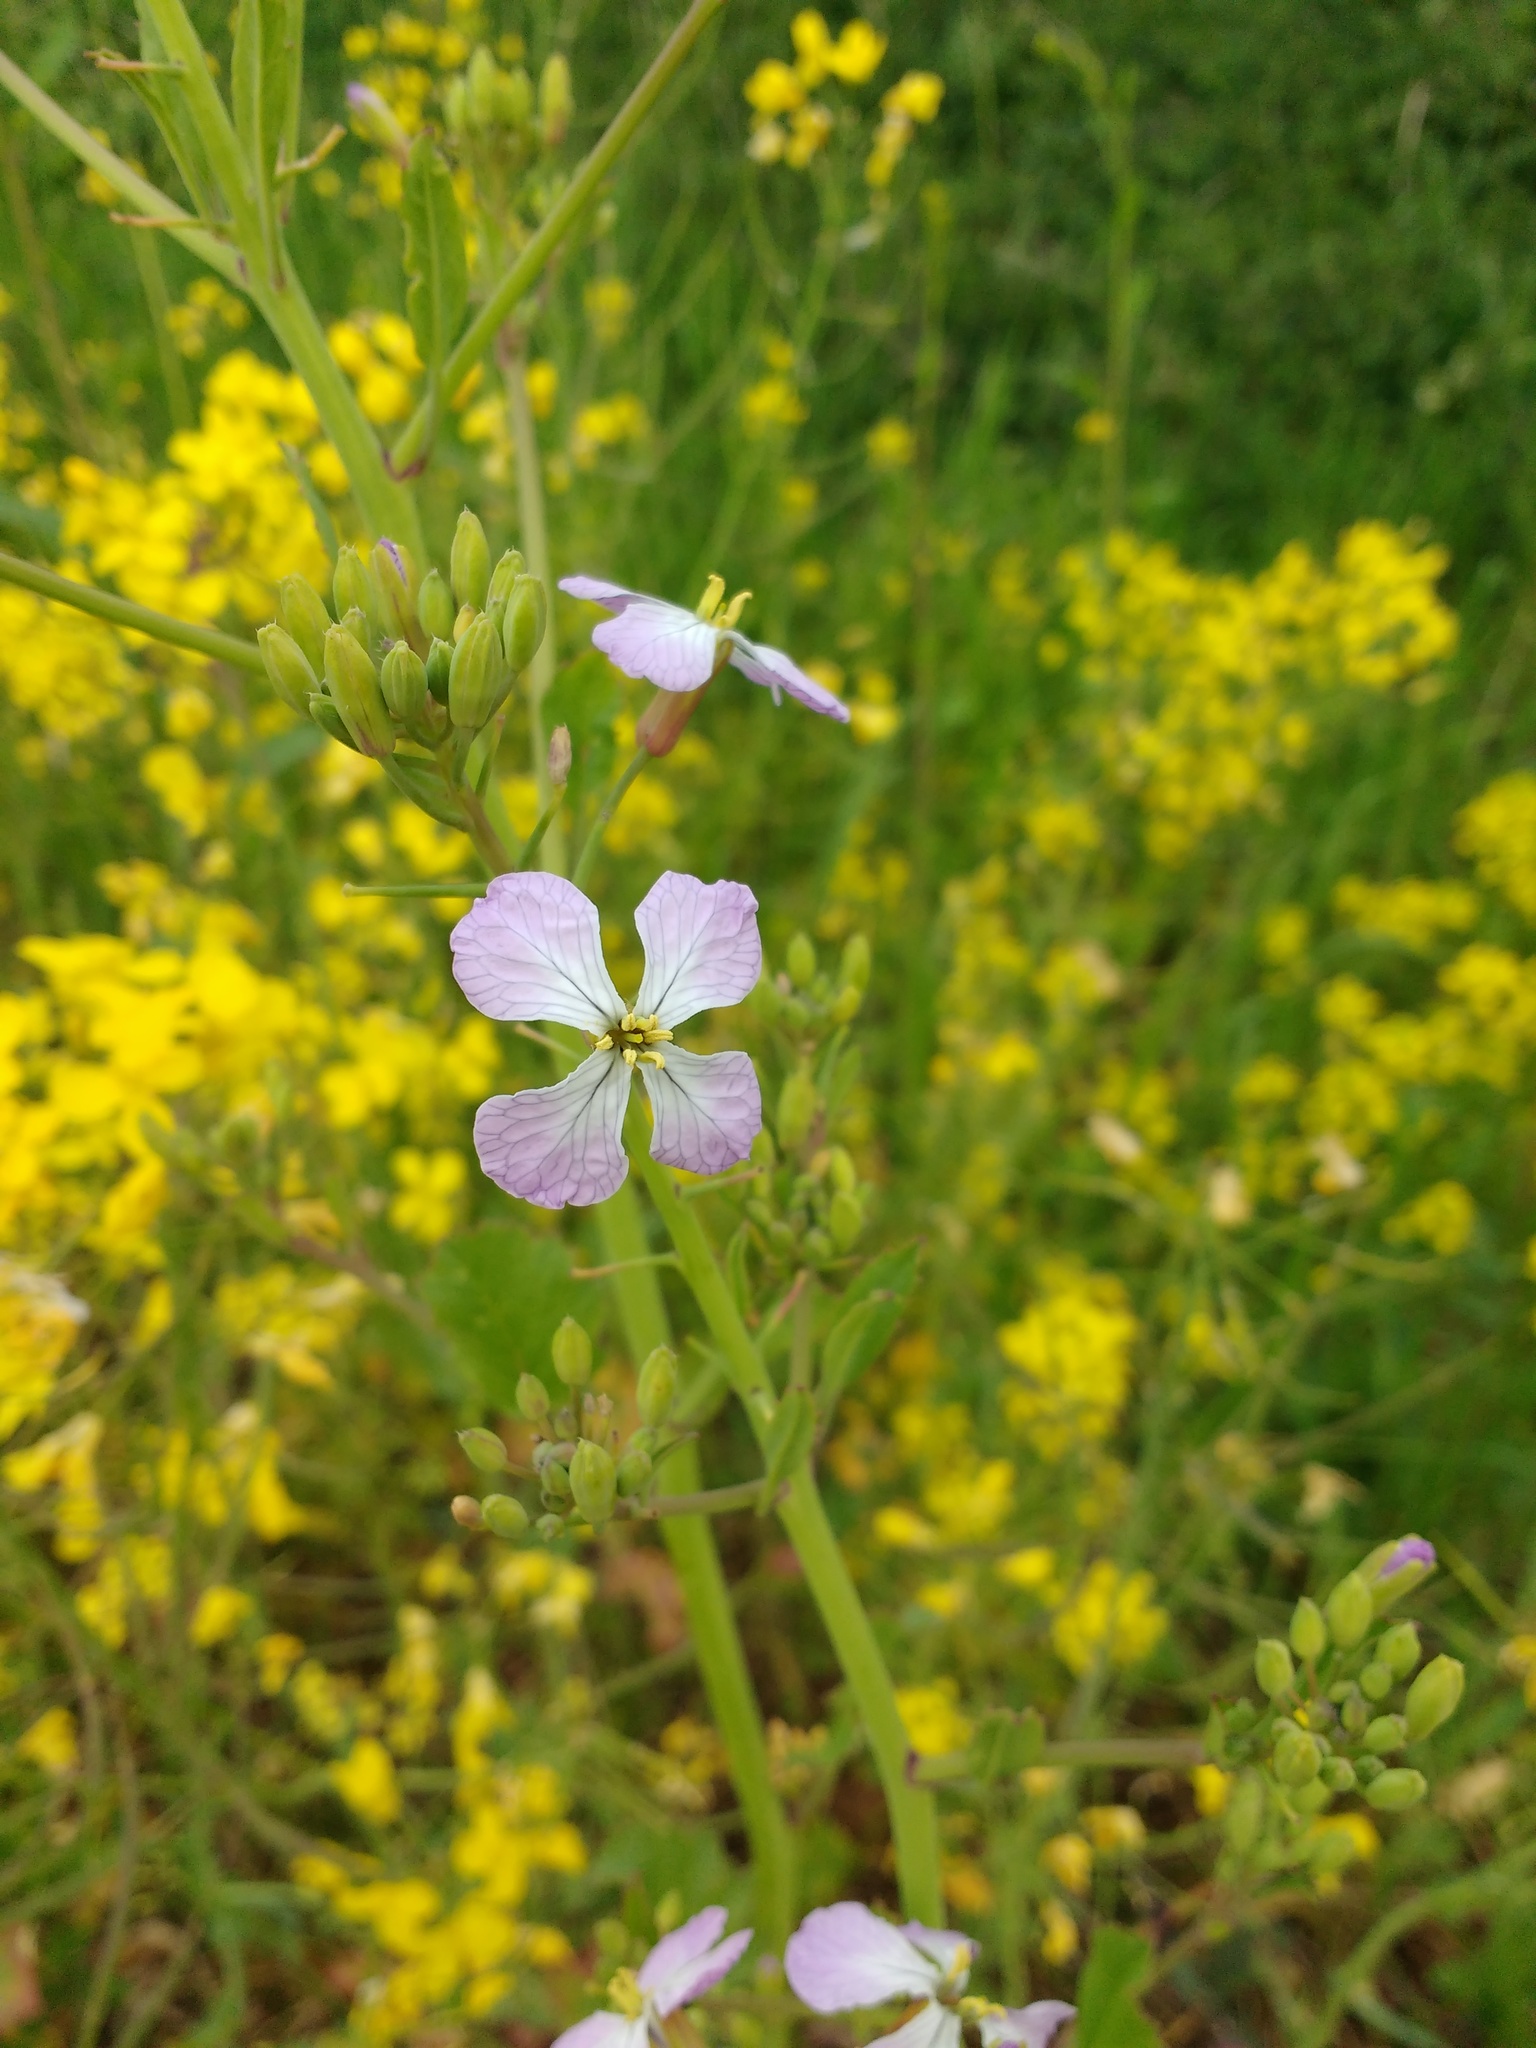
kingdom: Plantae
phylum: Tracheophyta
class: Magnoliopsida
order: Brassicales
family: Brassicaceae
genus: Raphanus
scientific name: Raphanus sativus
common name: Cultivated radish
